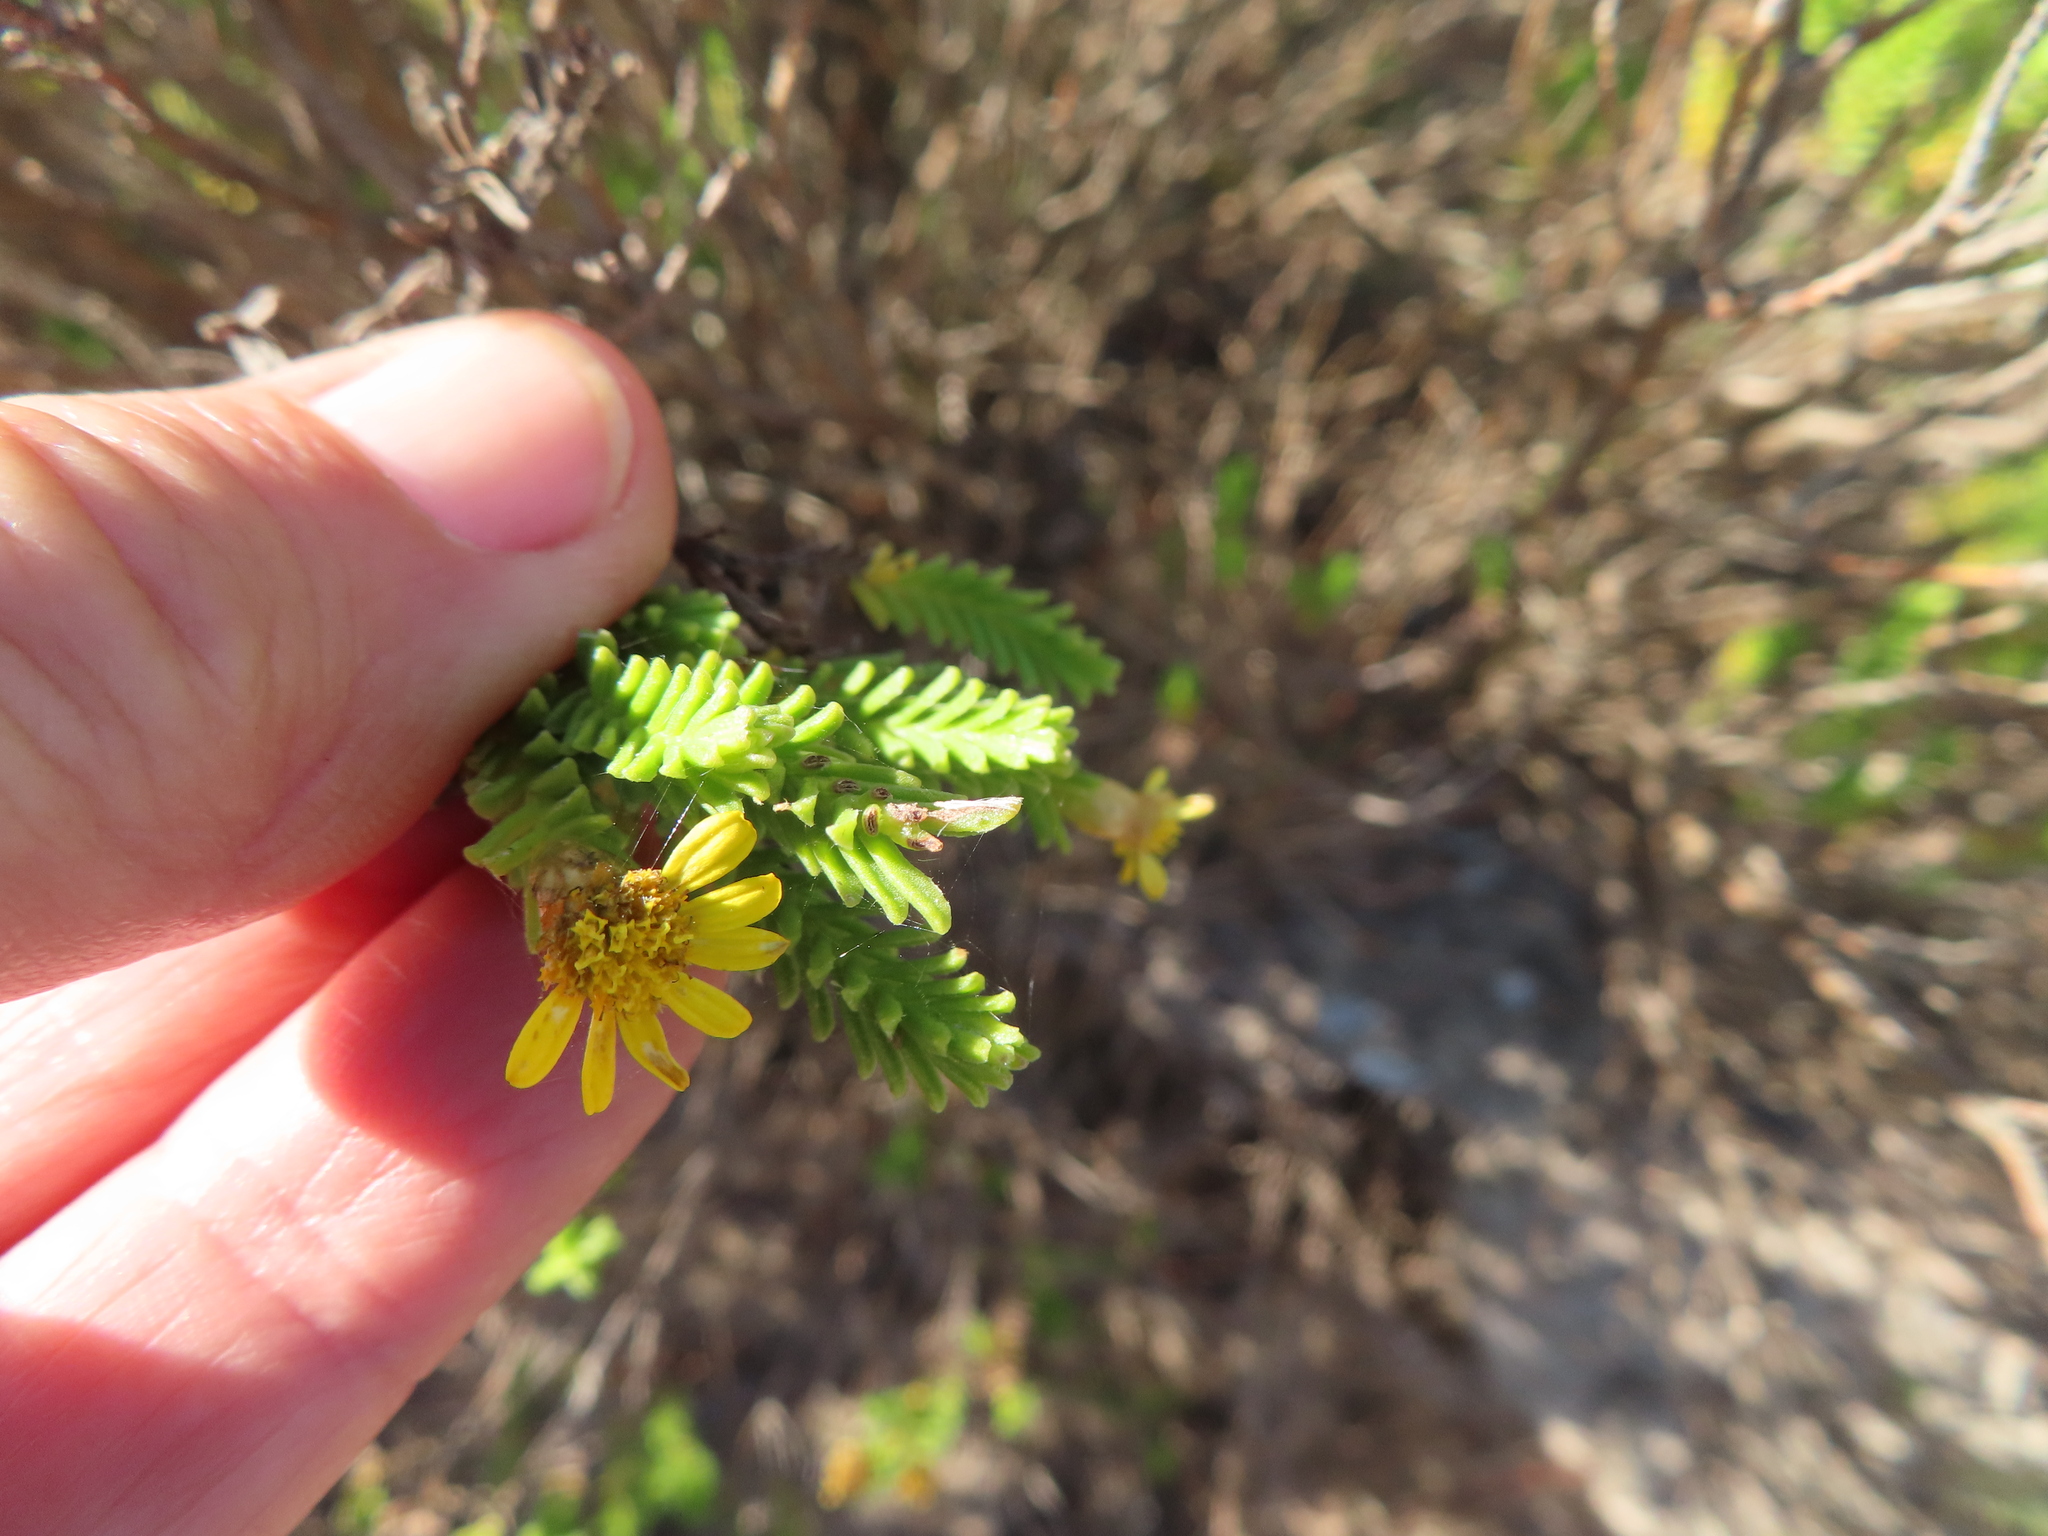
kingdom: Plantae
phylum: Tracheophyta
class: Magnoliopsida
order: Asterales
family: Asteraceae
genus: Oedera
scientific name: Oedera uniflora
